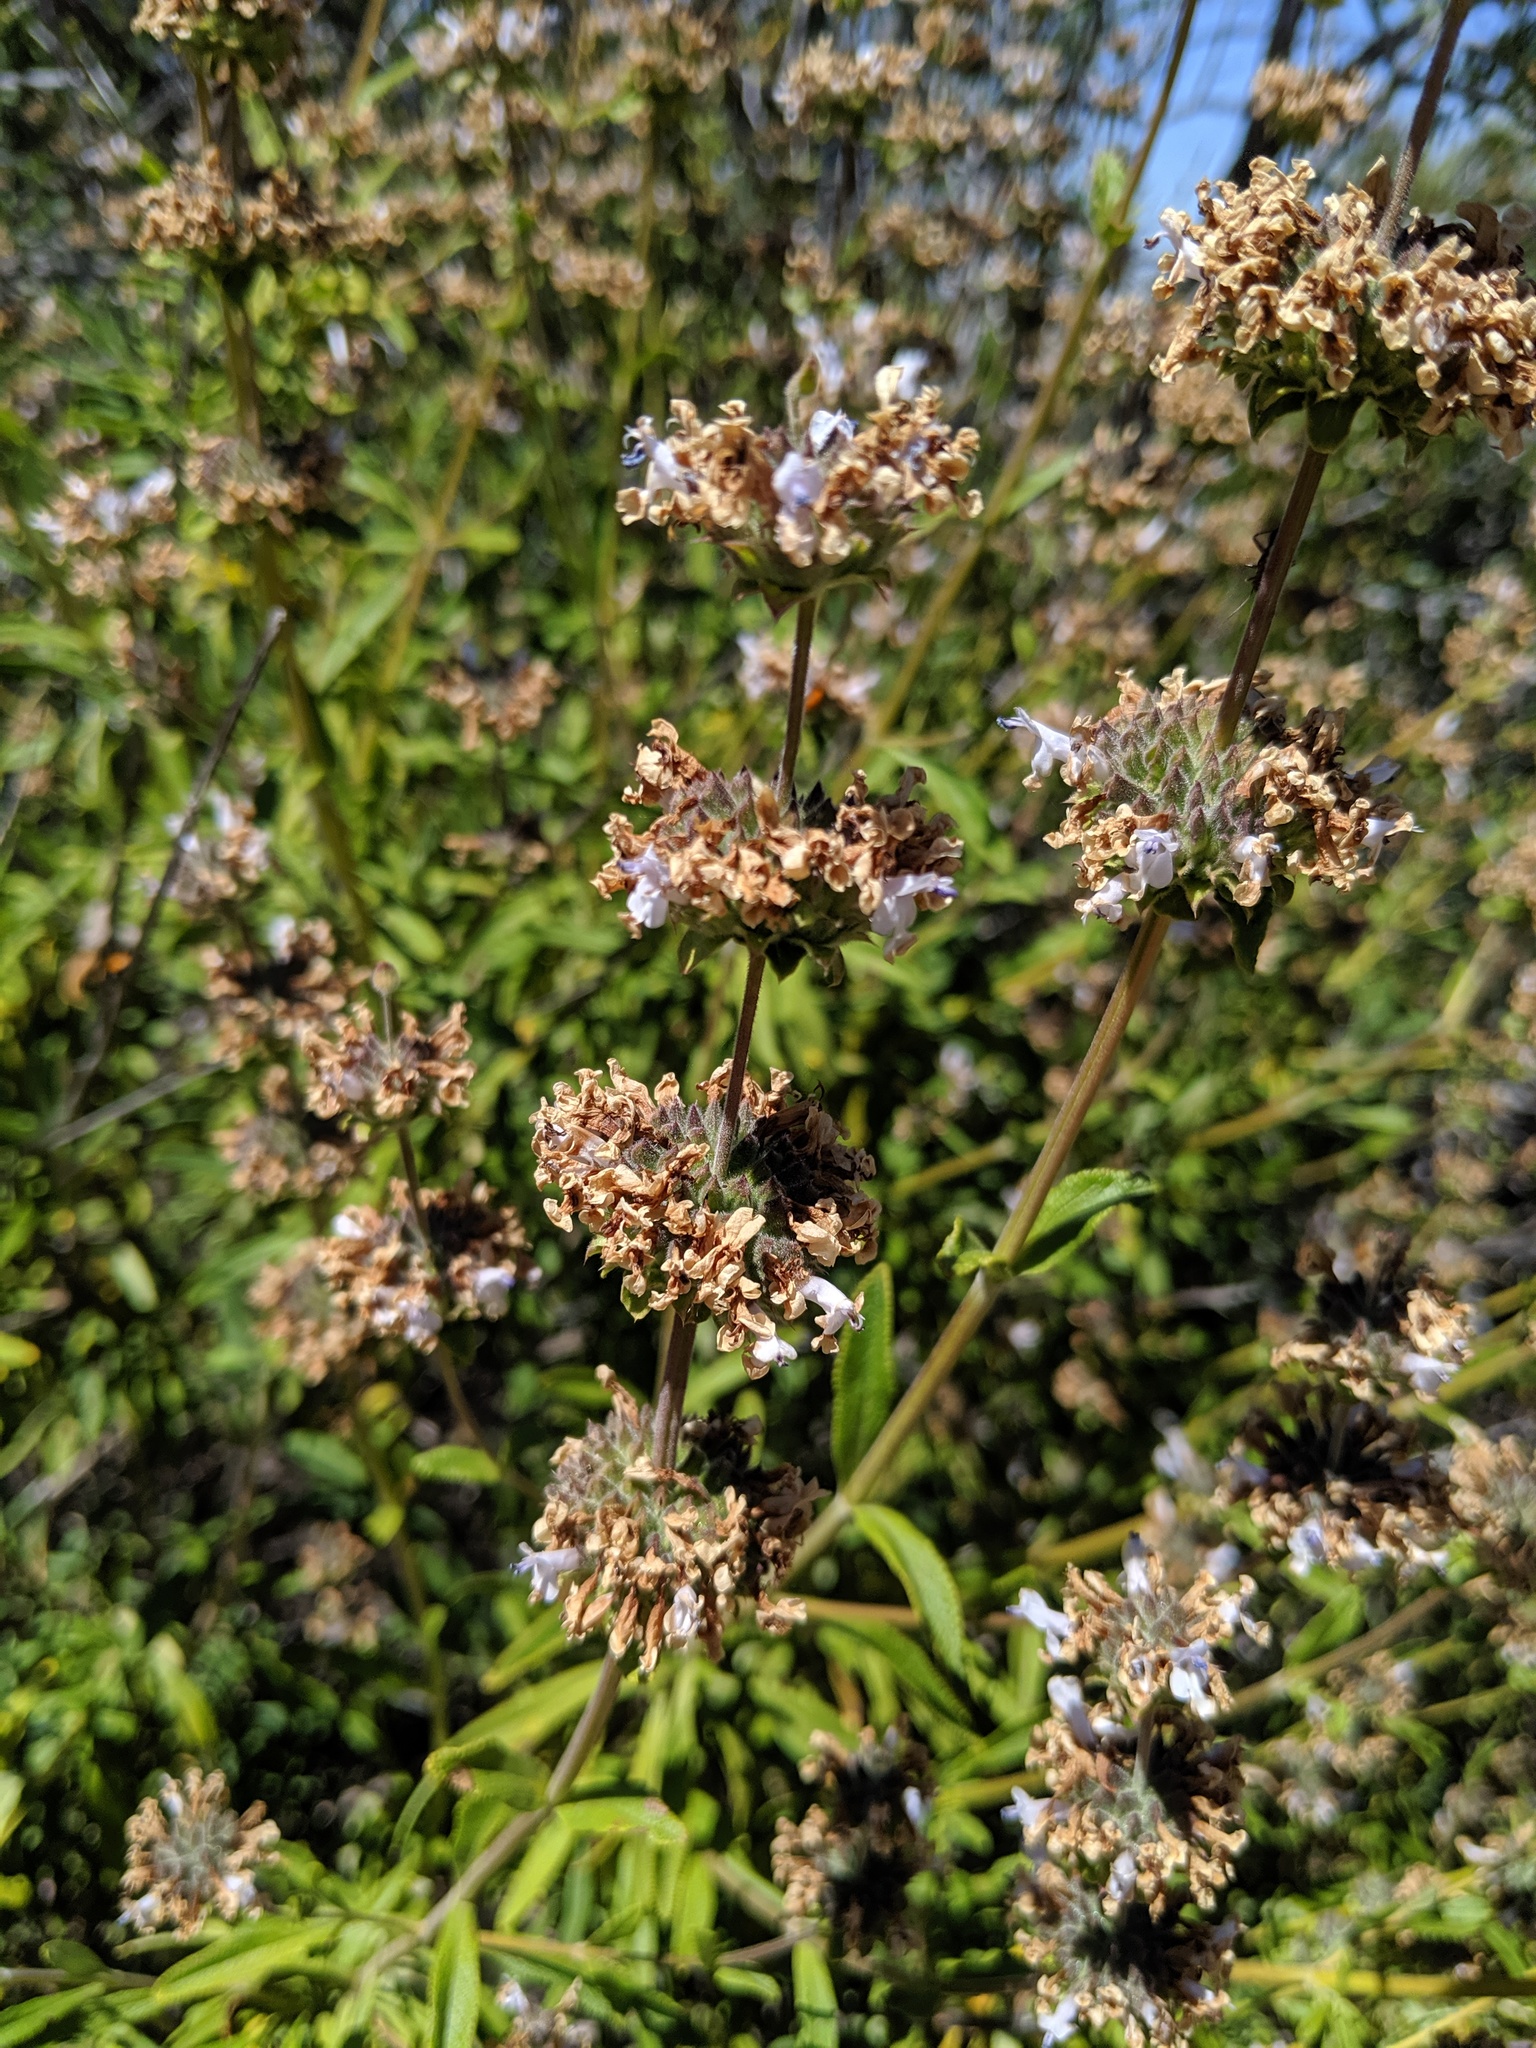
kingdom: Plantae
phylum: Tracheophyta
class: Magnoliopsida
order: Lamiales
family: Lamiaceae
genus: Salvia
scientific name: Salvia mellifera
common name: Black sage
